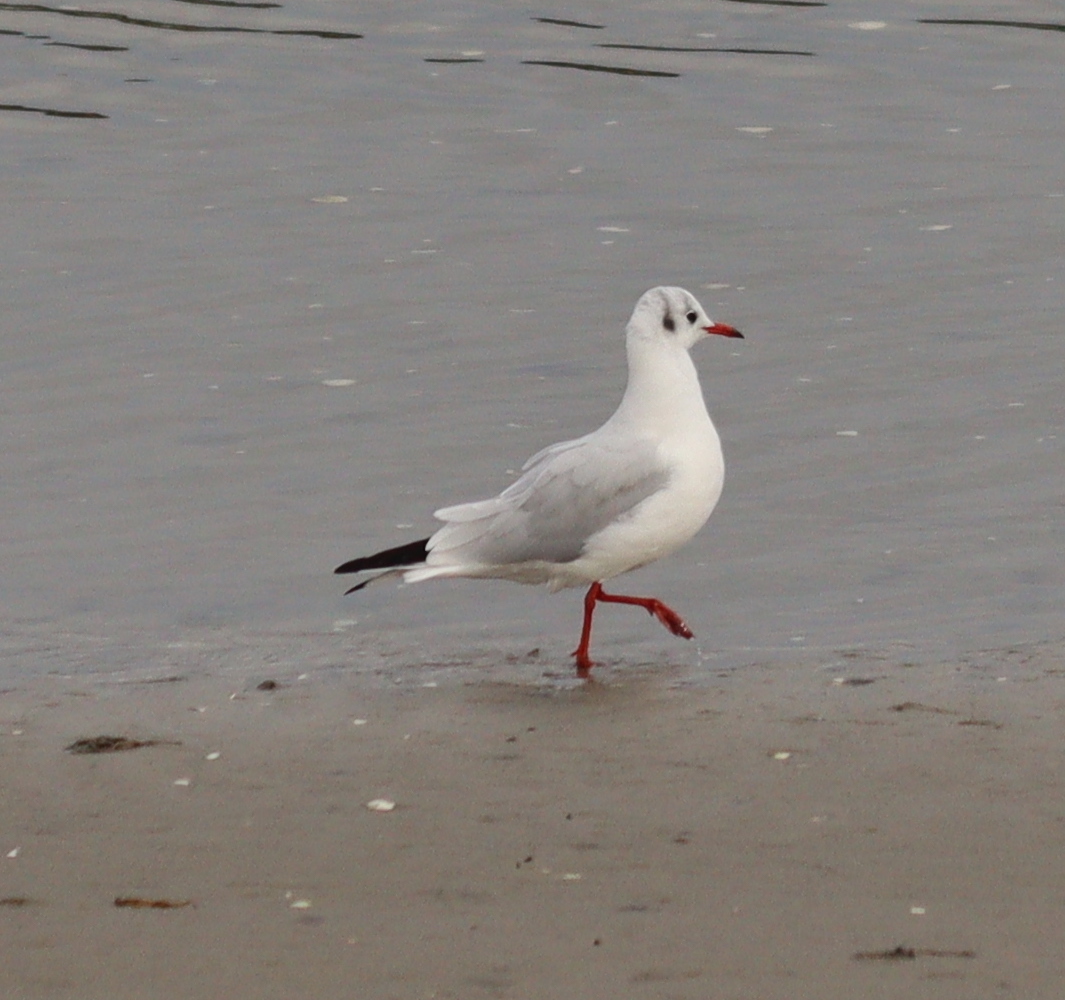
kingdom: Animalia
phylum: Chordata
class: Aves
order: Charadriiformes
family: Laridae
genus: Chroicocephalus
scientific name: Chroicocephalus ridibundus
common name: Black-headed gull
